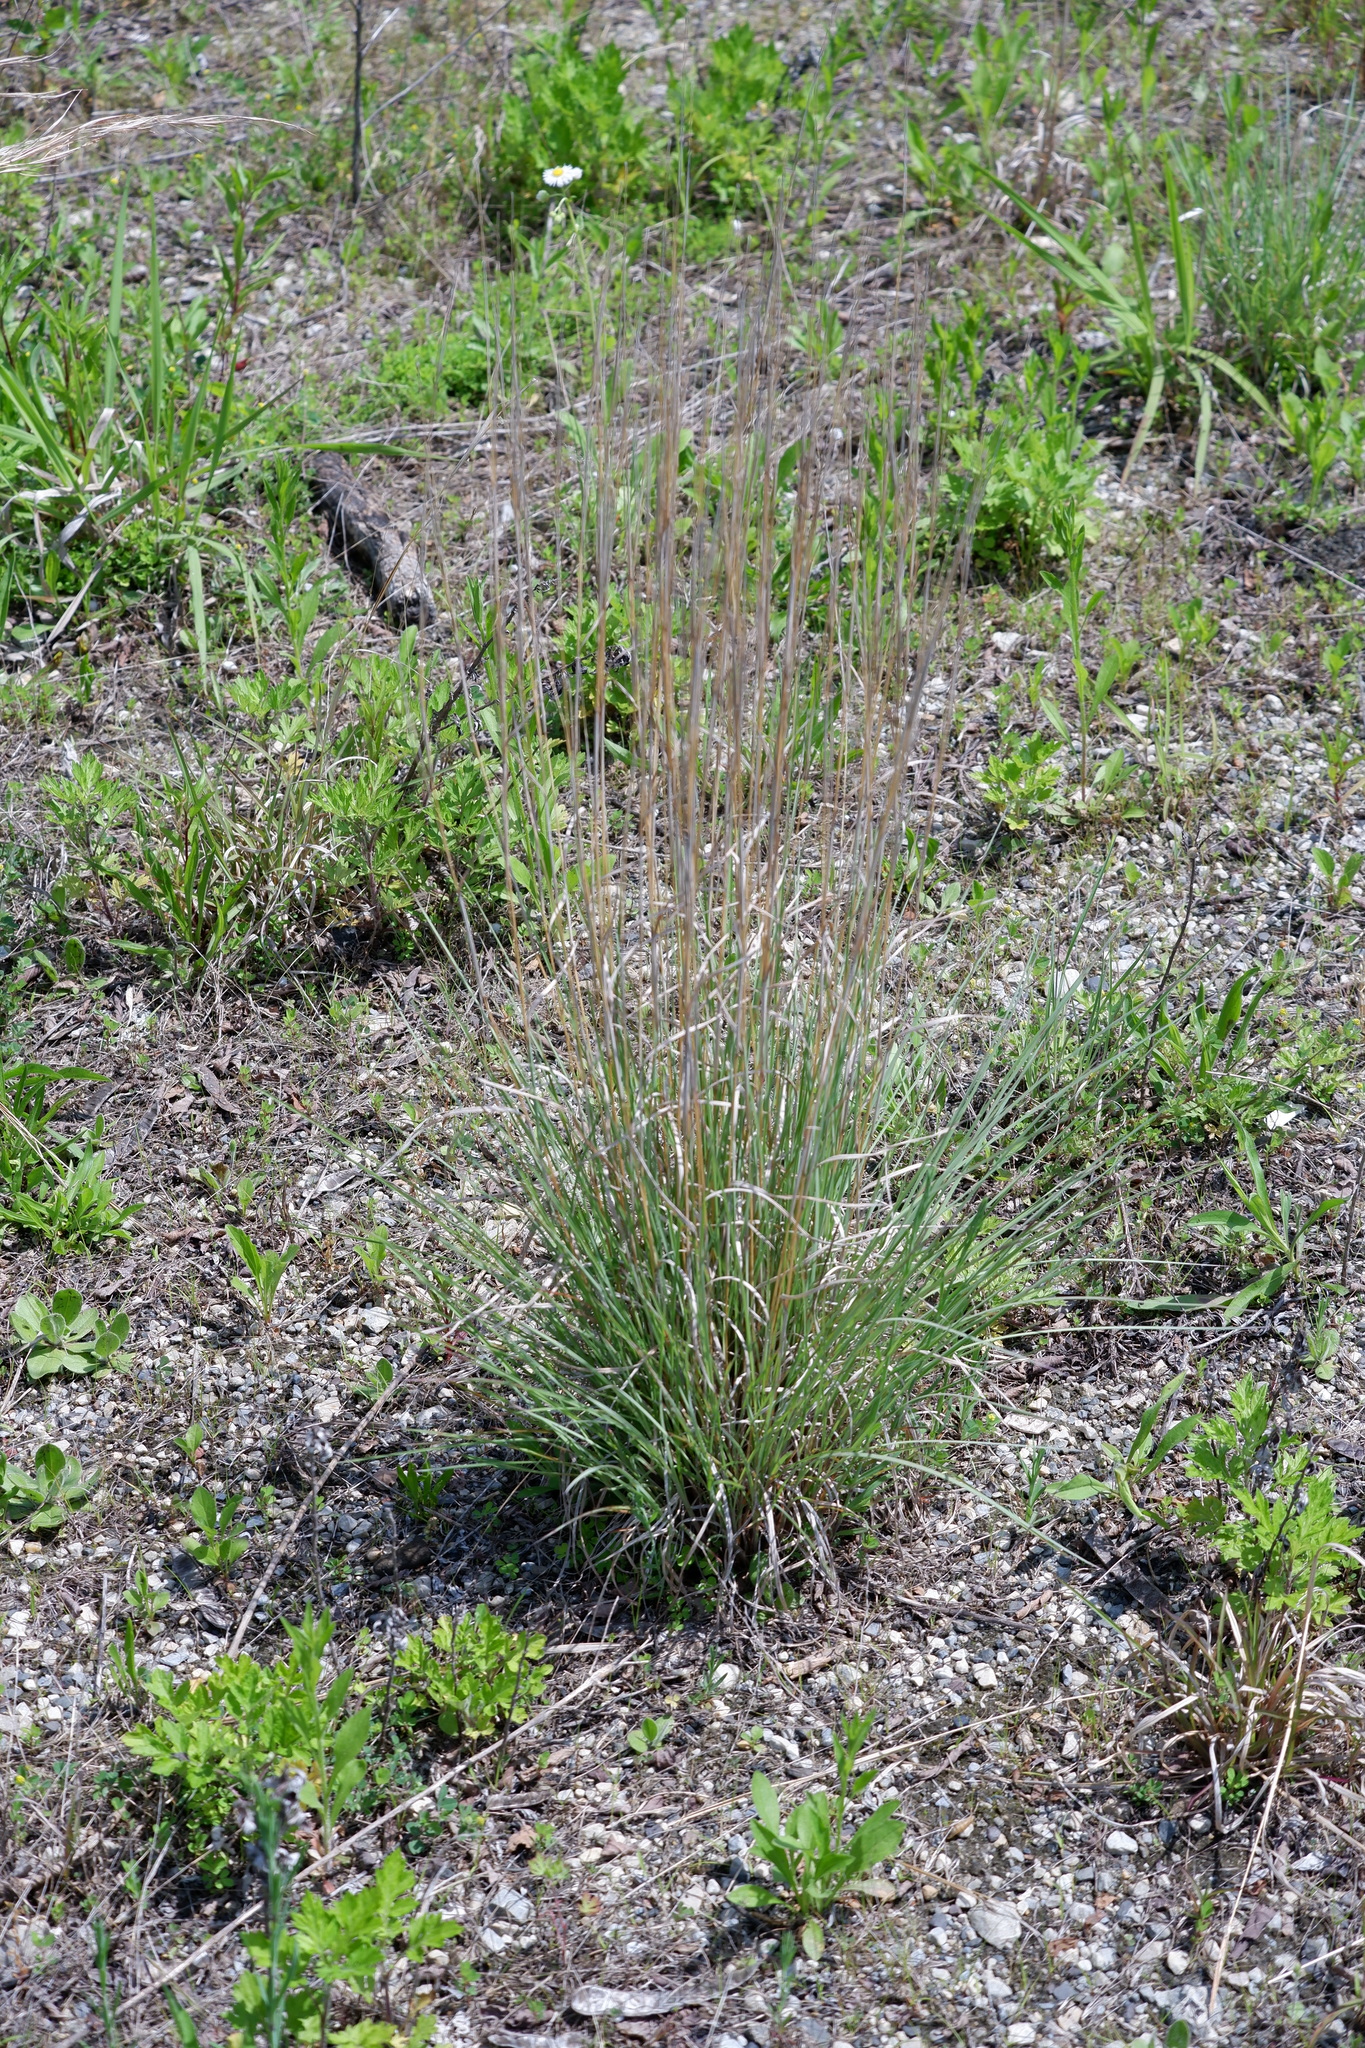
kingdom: Plantae
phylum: Tracheophyta
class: Liliopsida
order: Poales
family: Poaceae
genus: Schizachyrium
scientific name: Schizachyrium scoparium
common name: Little bluestem
